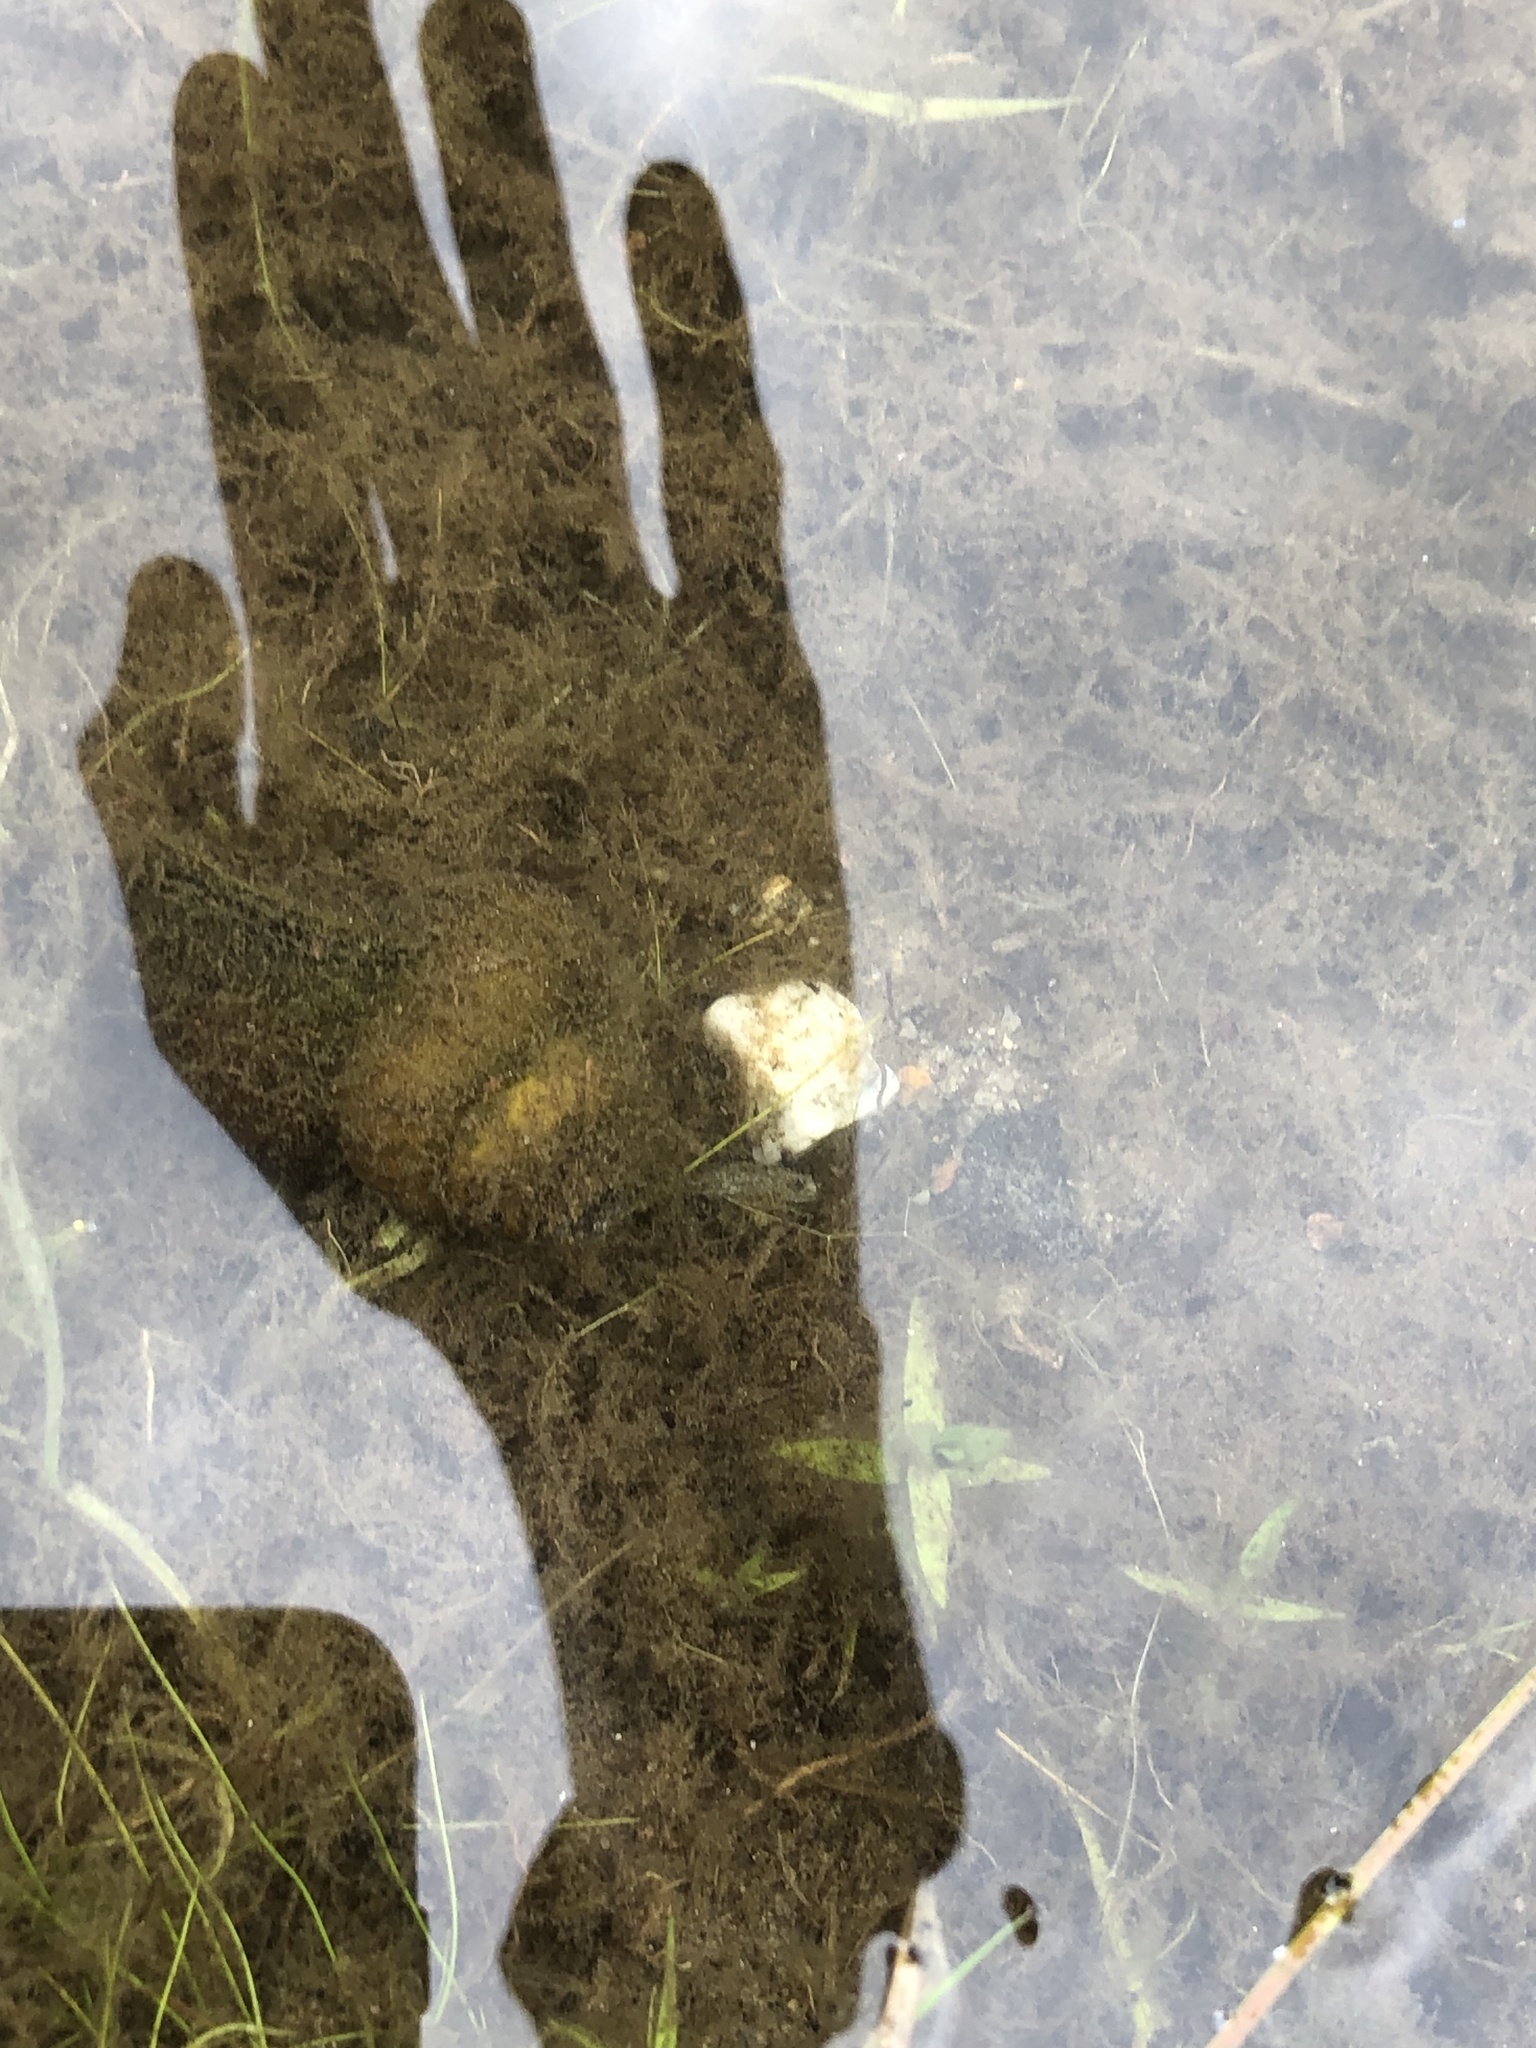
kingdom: Animalia
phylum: Mollusca
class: Gastropoda
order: Architaenioglossa
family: Viviparidae
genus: Cipangopaludina
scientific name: Cipangopaludina chinensis
